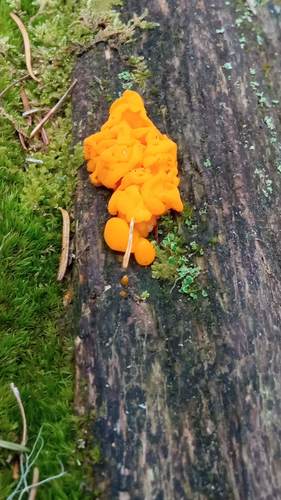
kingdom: Fungi
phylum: Basidiomycota
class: Dacrymycetes
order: Dacrymycetales
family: Dacrymycetaceae
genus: Dacrymyces
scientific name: Dacrymyces chrysospermus
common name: Orange jelly spot
